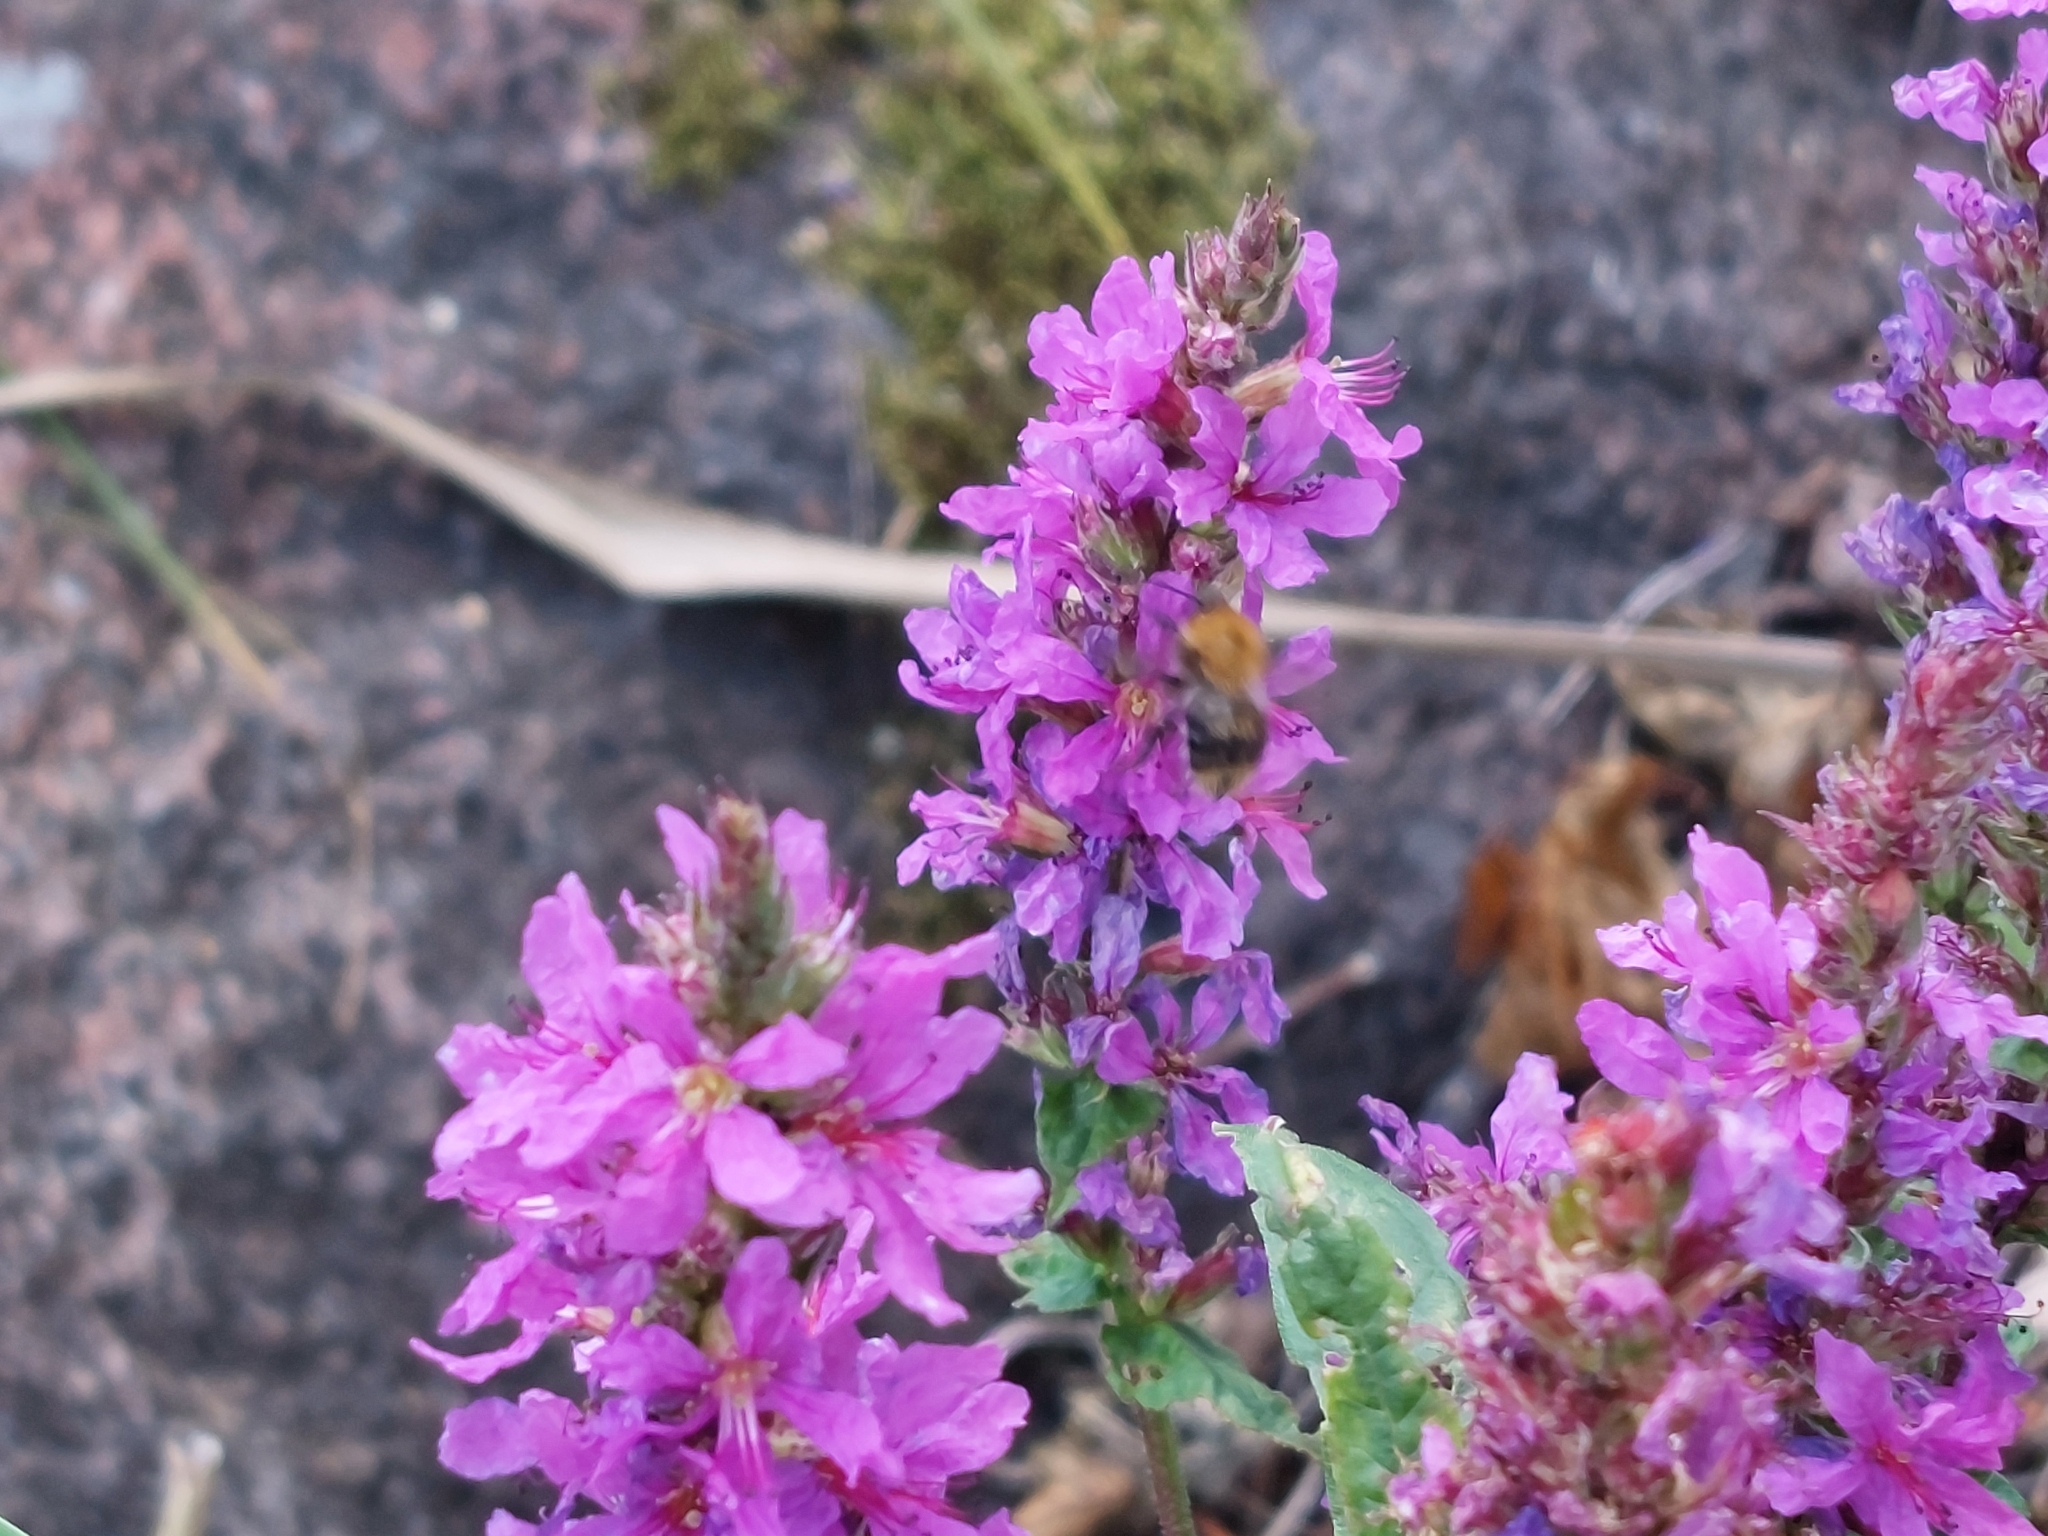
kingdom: Animalia
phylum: Arthropoda
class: Insecta
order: Hymenoptera
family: Apidae
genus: Bombus
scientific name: Bombus pascuorum
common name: Common carder bee
